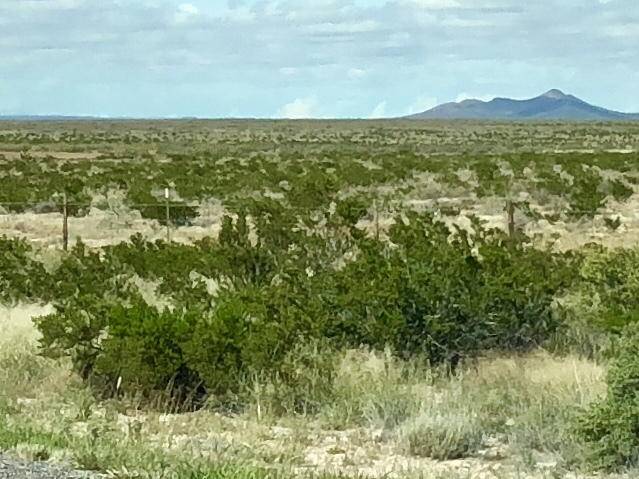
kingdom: Plantae
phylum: Tracheophyta
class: Magnoliopsida
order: Zygophyllales
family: Zygophyllaceae
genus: Larrea
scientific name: Larrea tridentata
